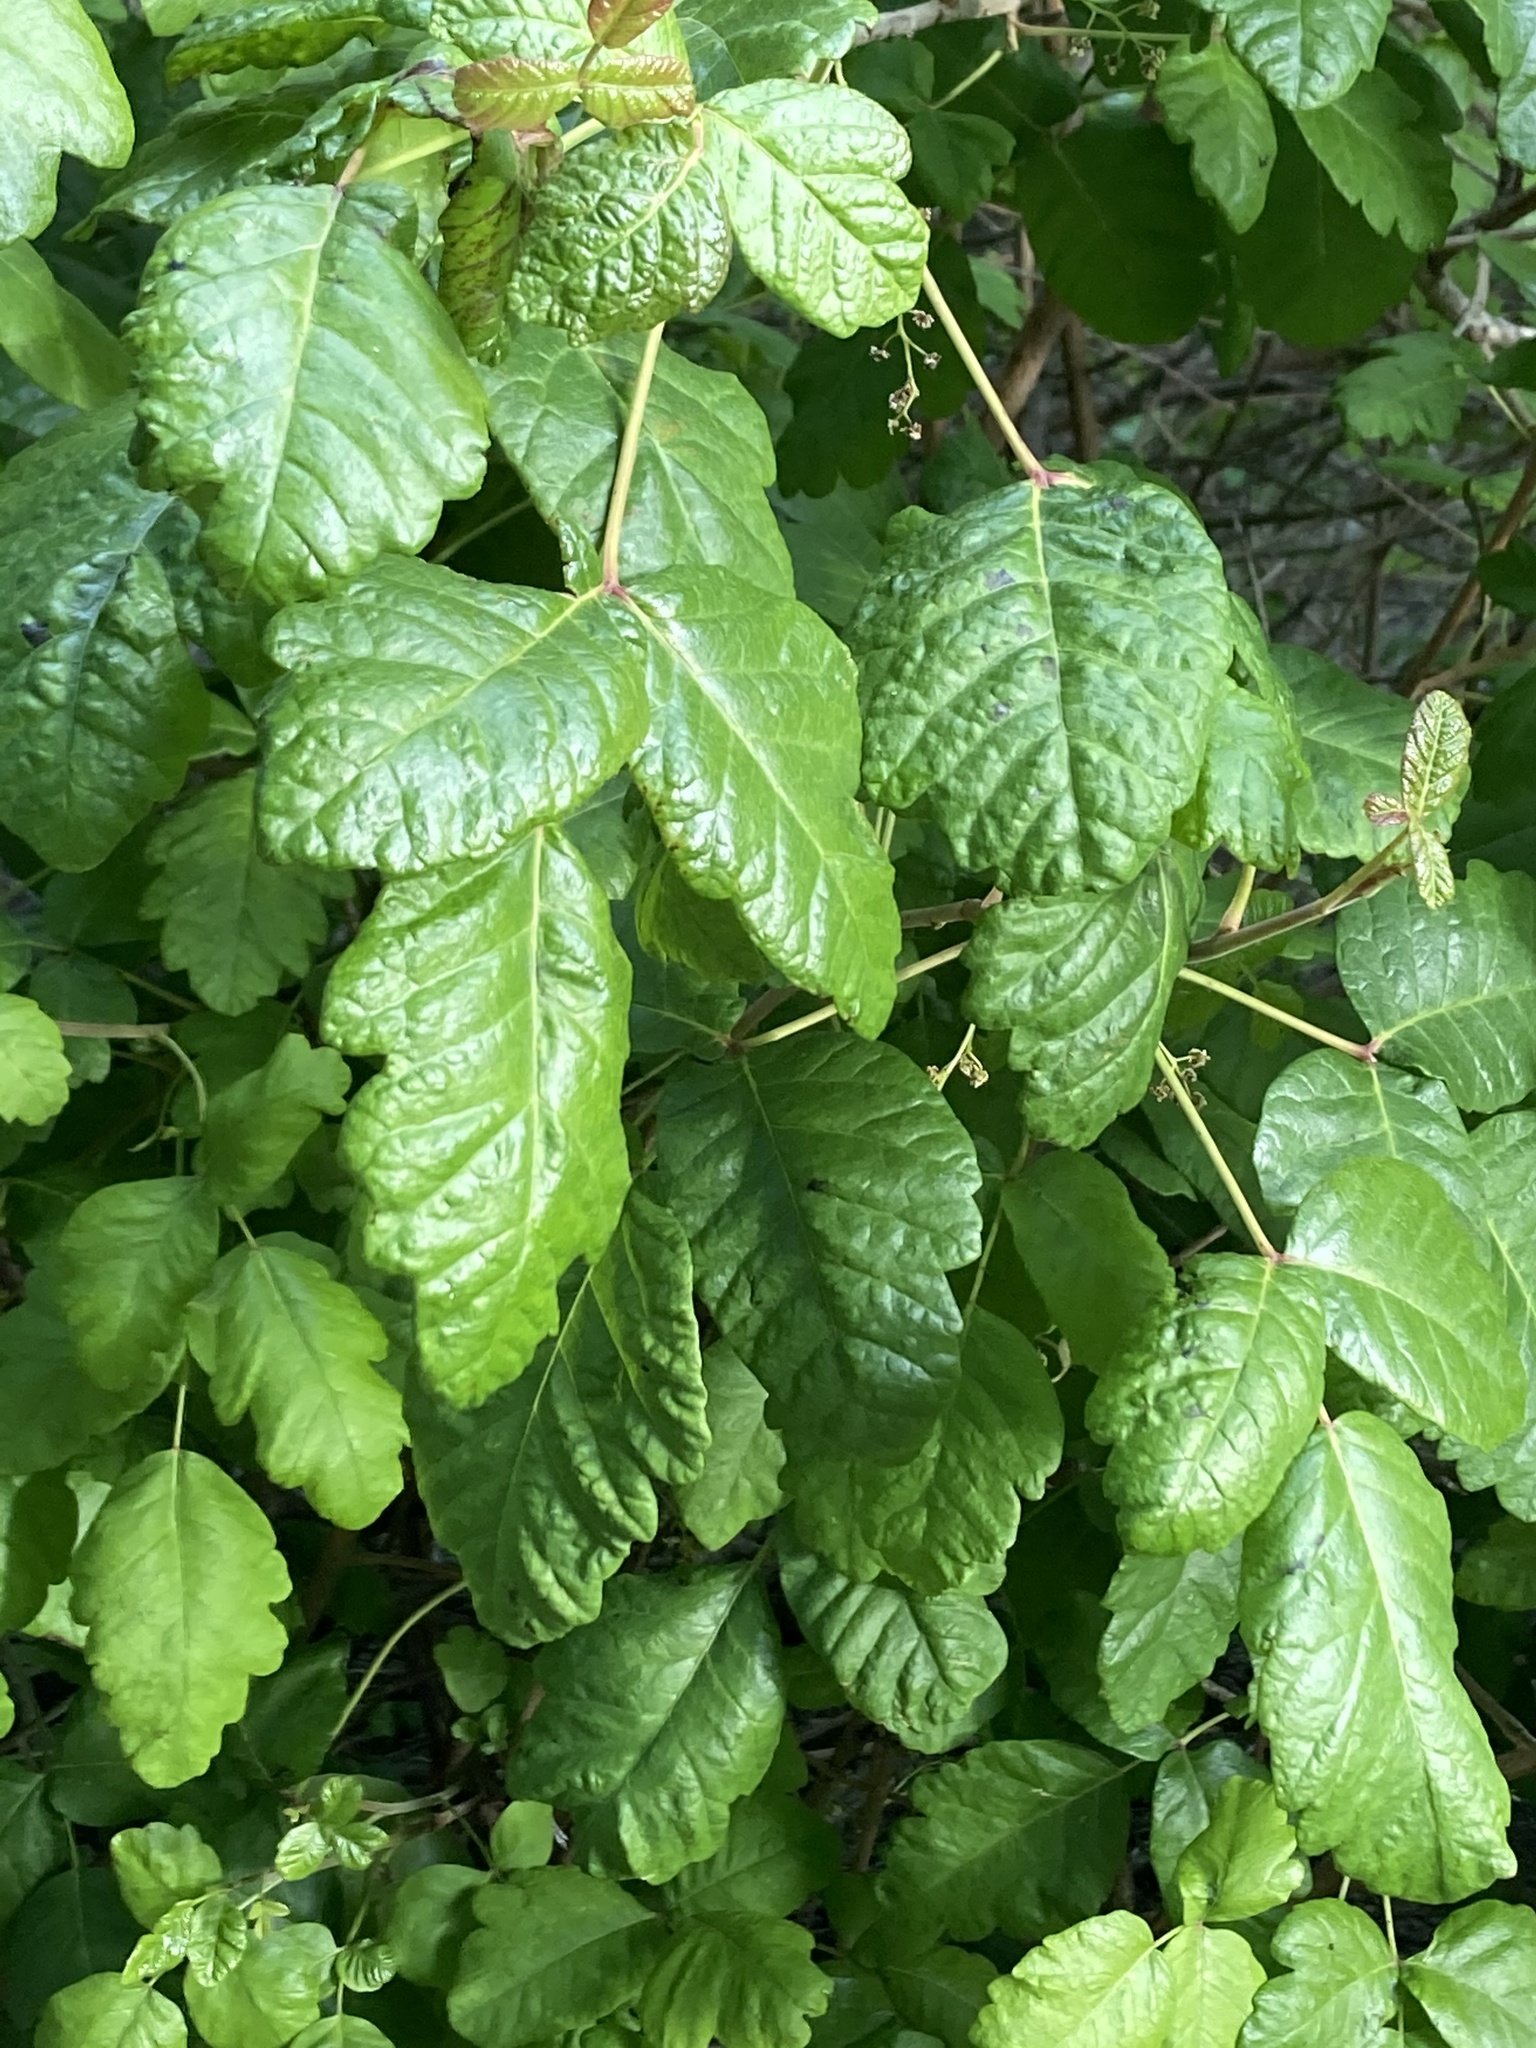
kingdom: Plantae
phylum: Tracheophyta
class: Magnoliopsida
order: Sapindales
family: Anacardiaceae
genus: Toxicodendron
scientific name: Toxicodendron diversilobum
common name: Pacific poison-oak
